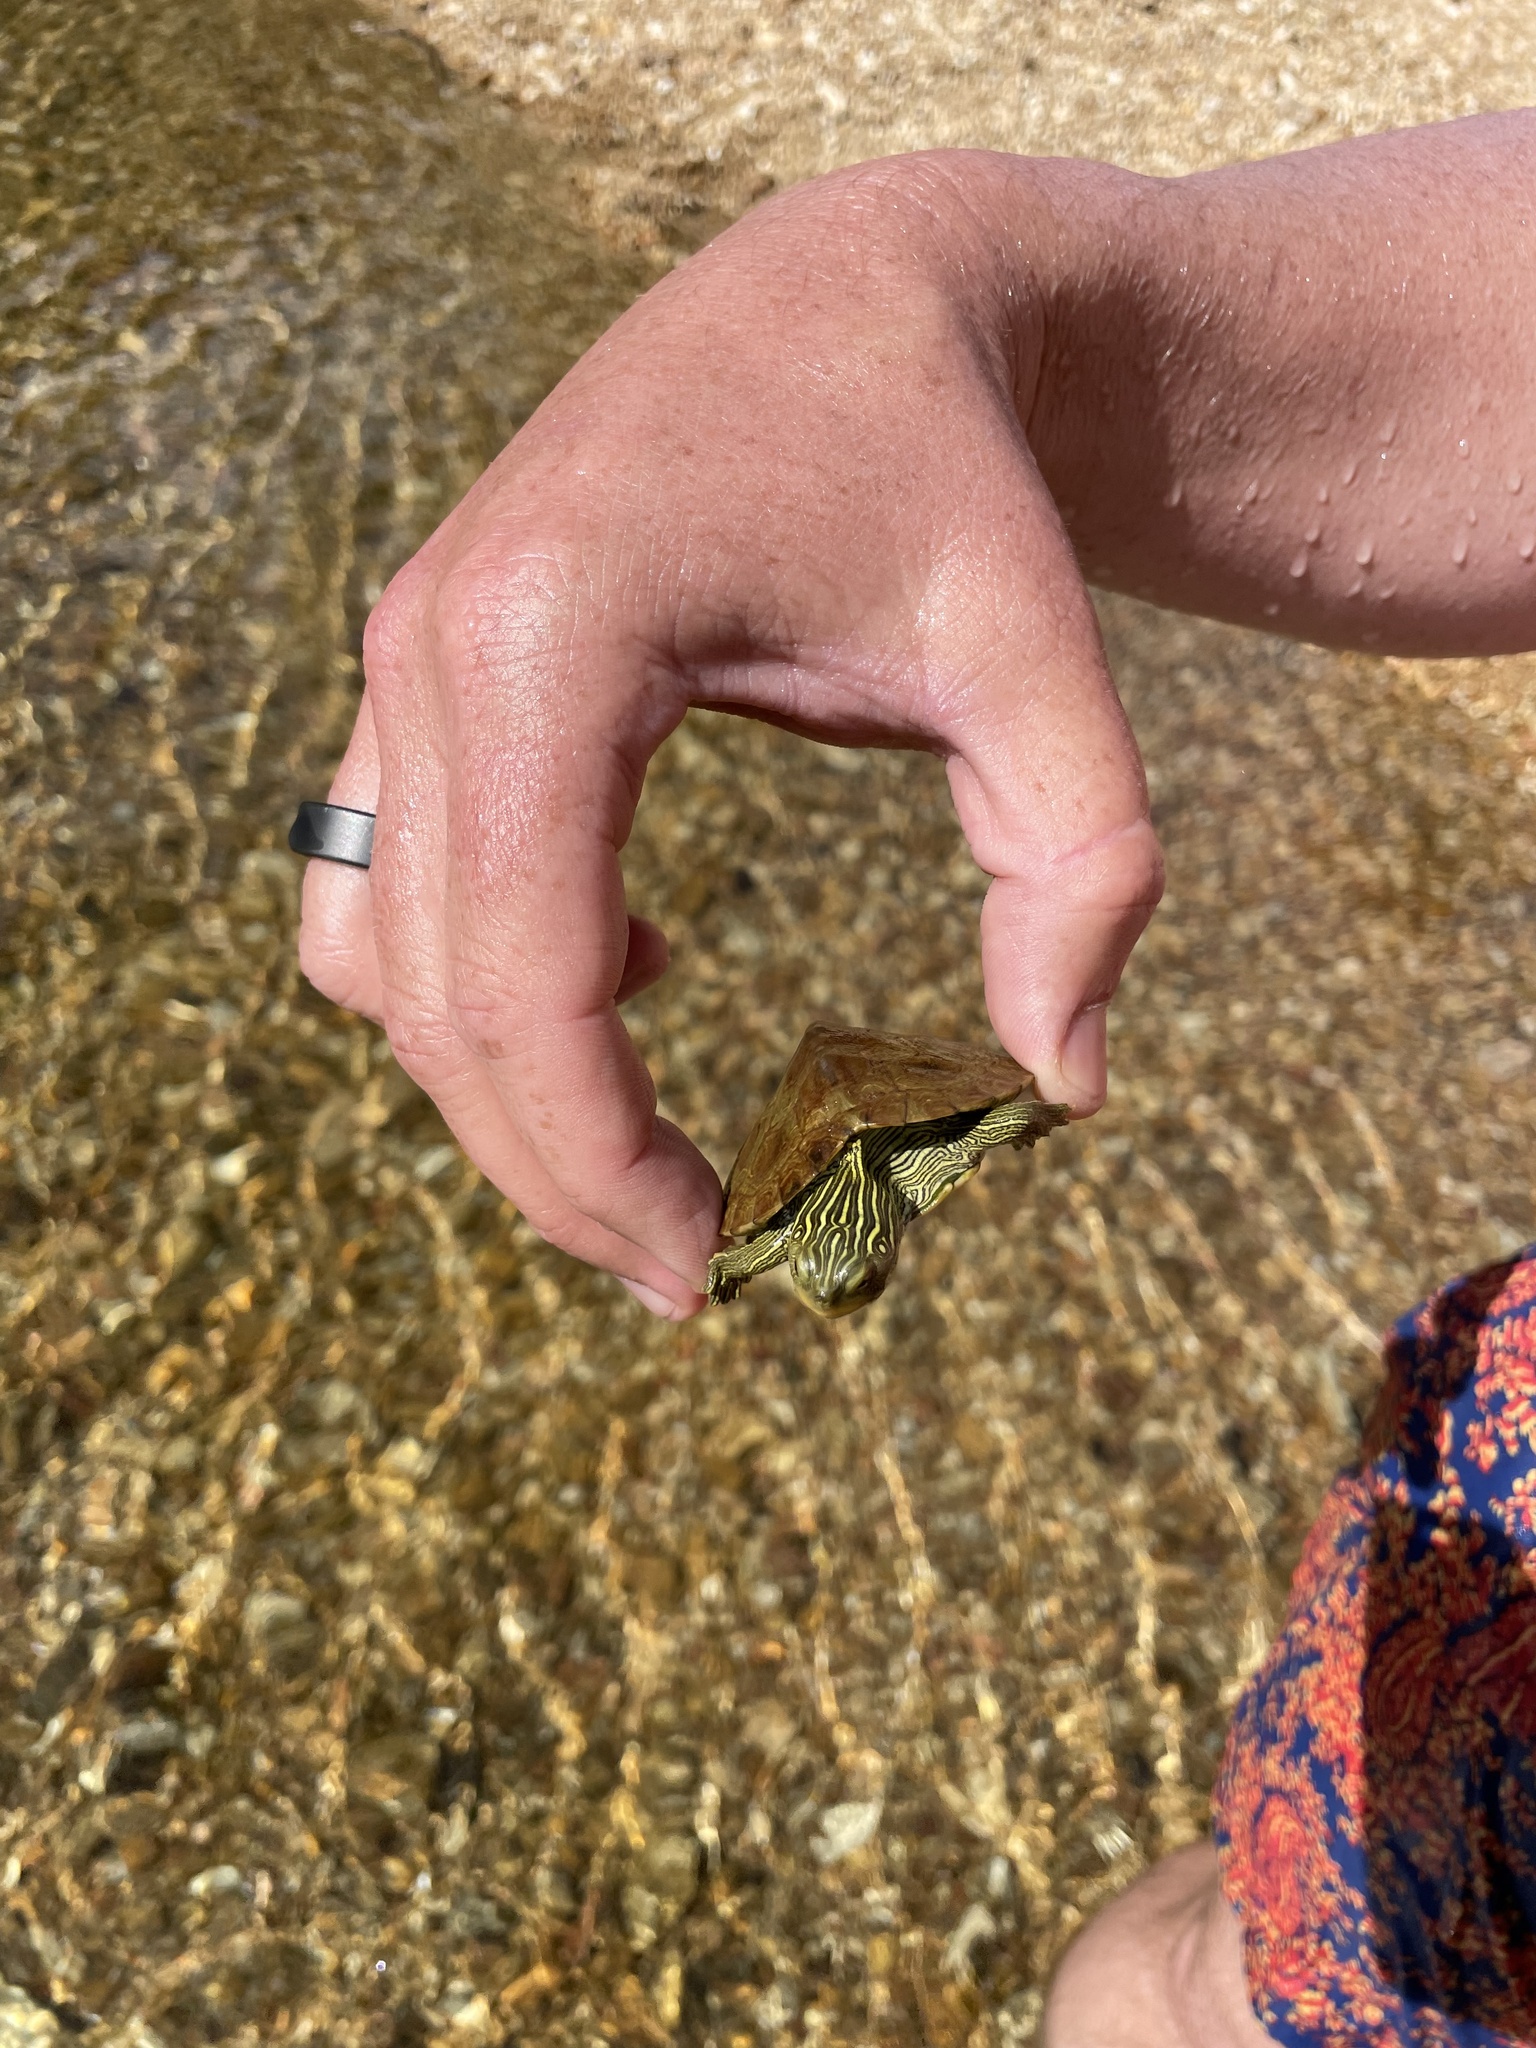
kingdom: Animalia
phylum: Chordata
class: Testudines
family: Emydidae
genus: Graptemys
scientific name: Graptemys geographica
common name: Common map turtle
